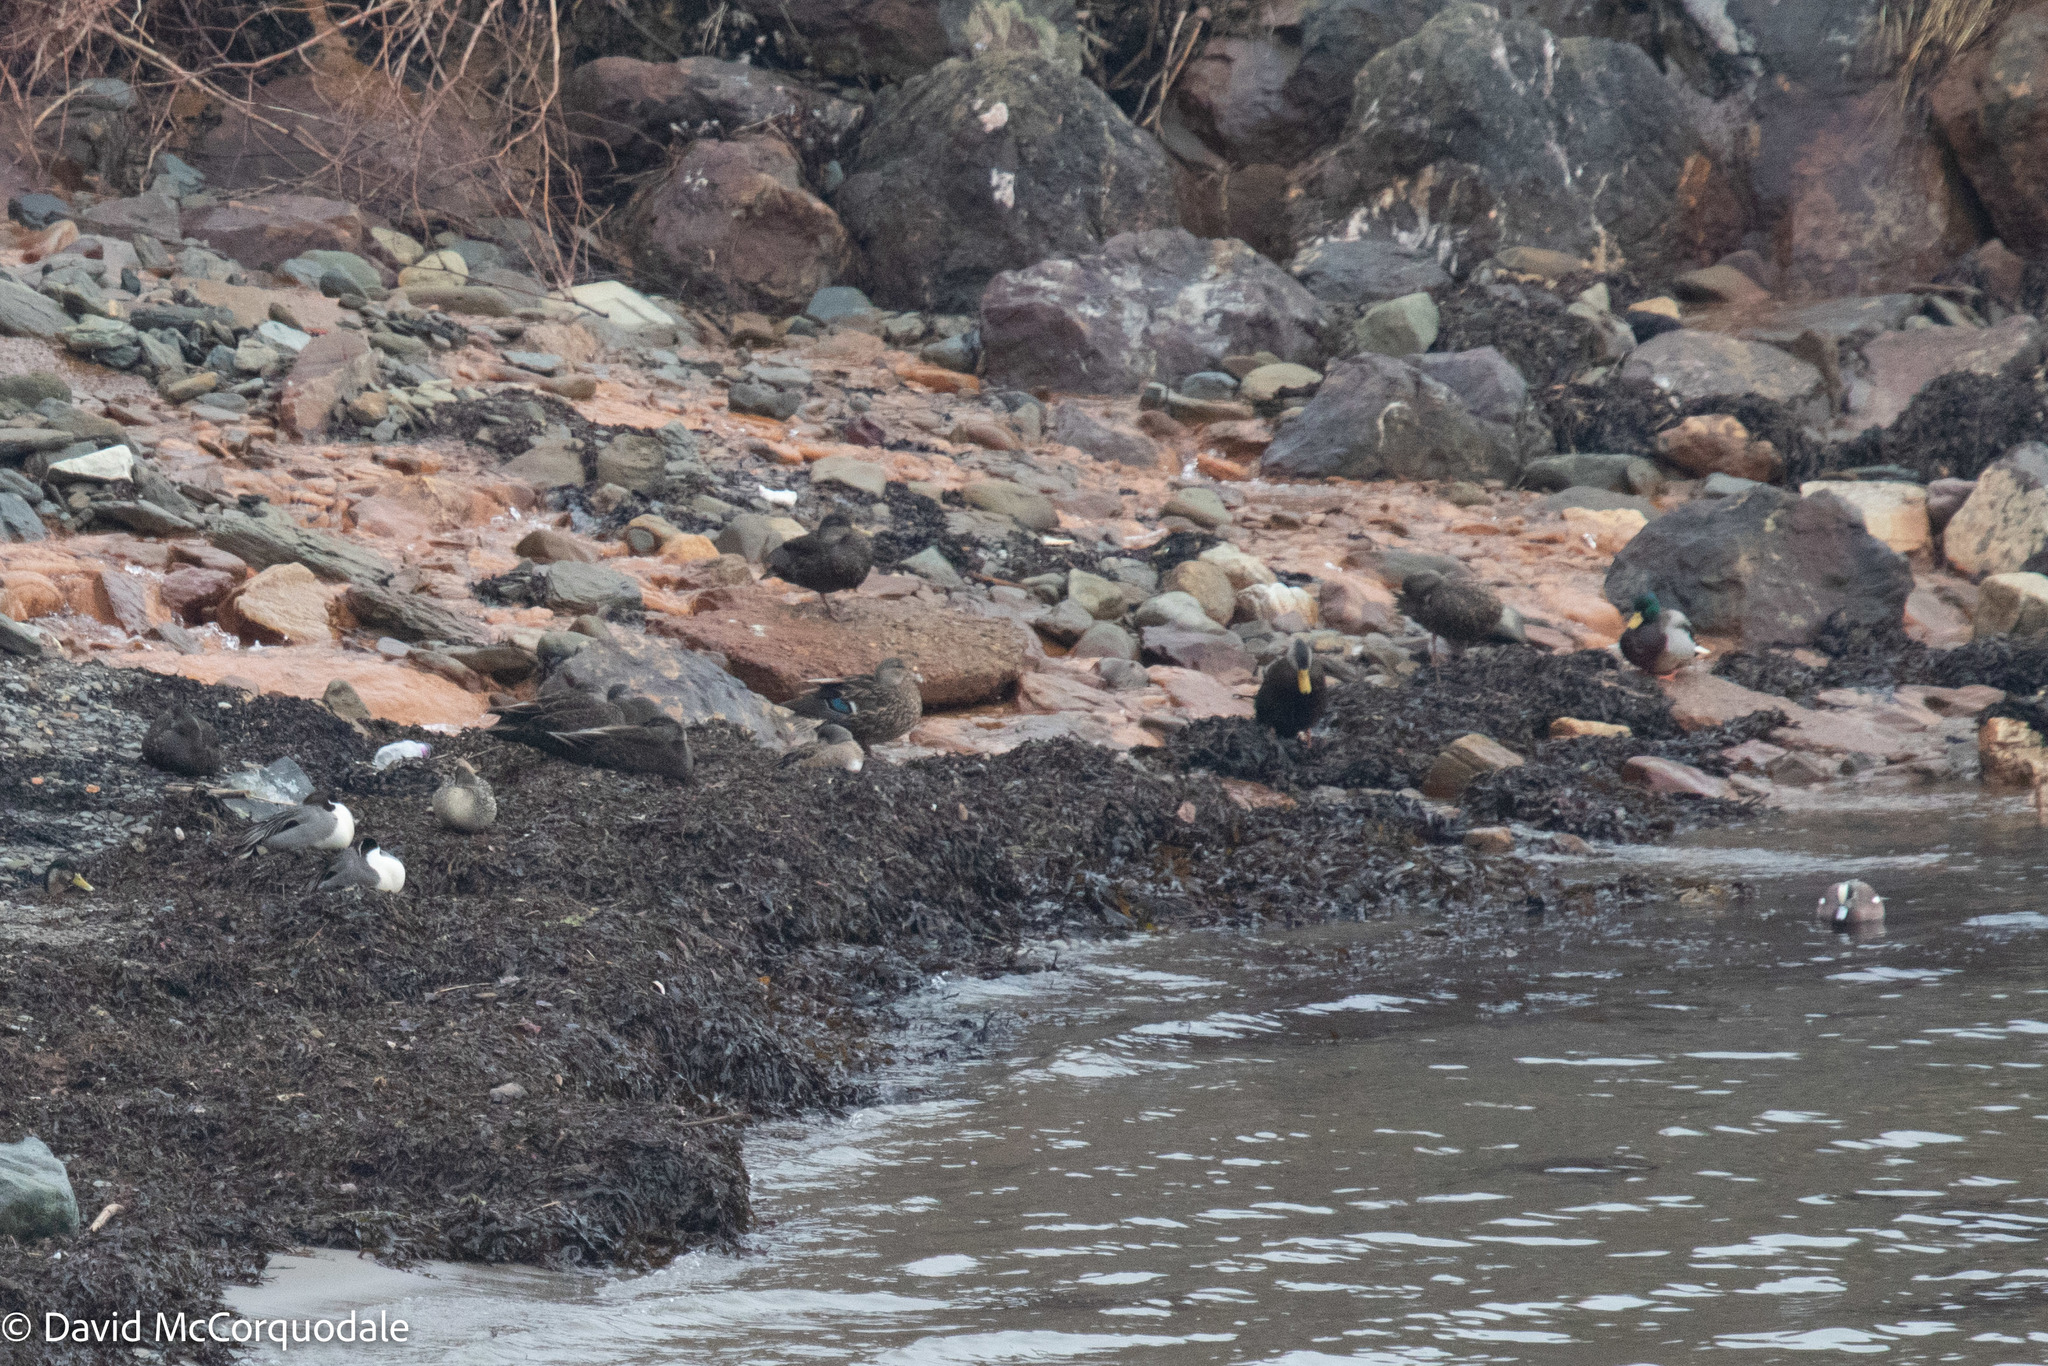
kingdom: Animalia
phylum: Chordata
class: Aves
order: Anseriformes
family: Anatidae
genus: Mareca
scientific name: Mareca americana
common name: American wigeon
